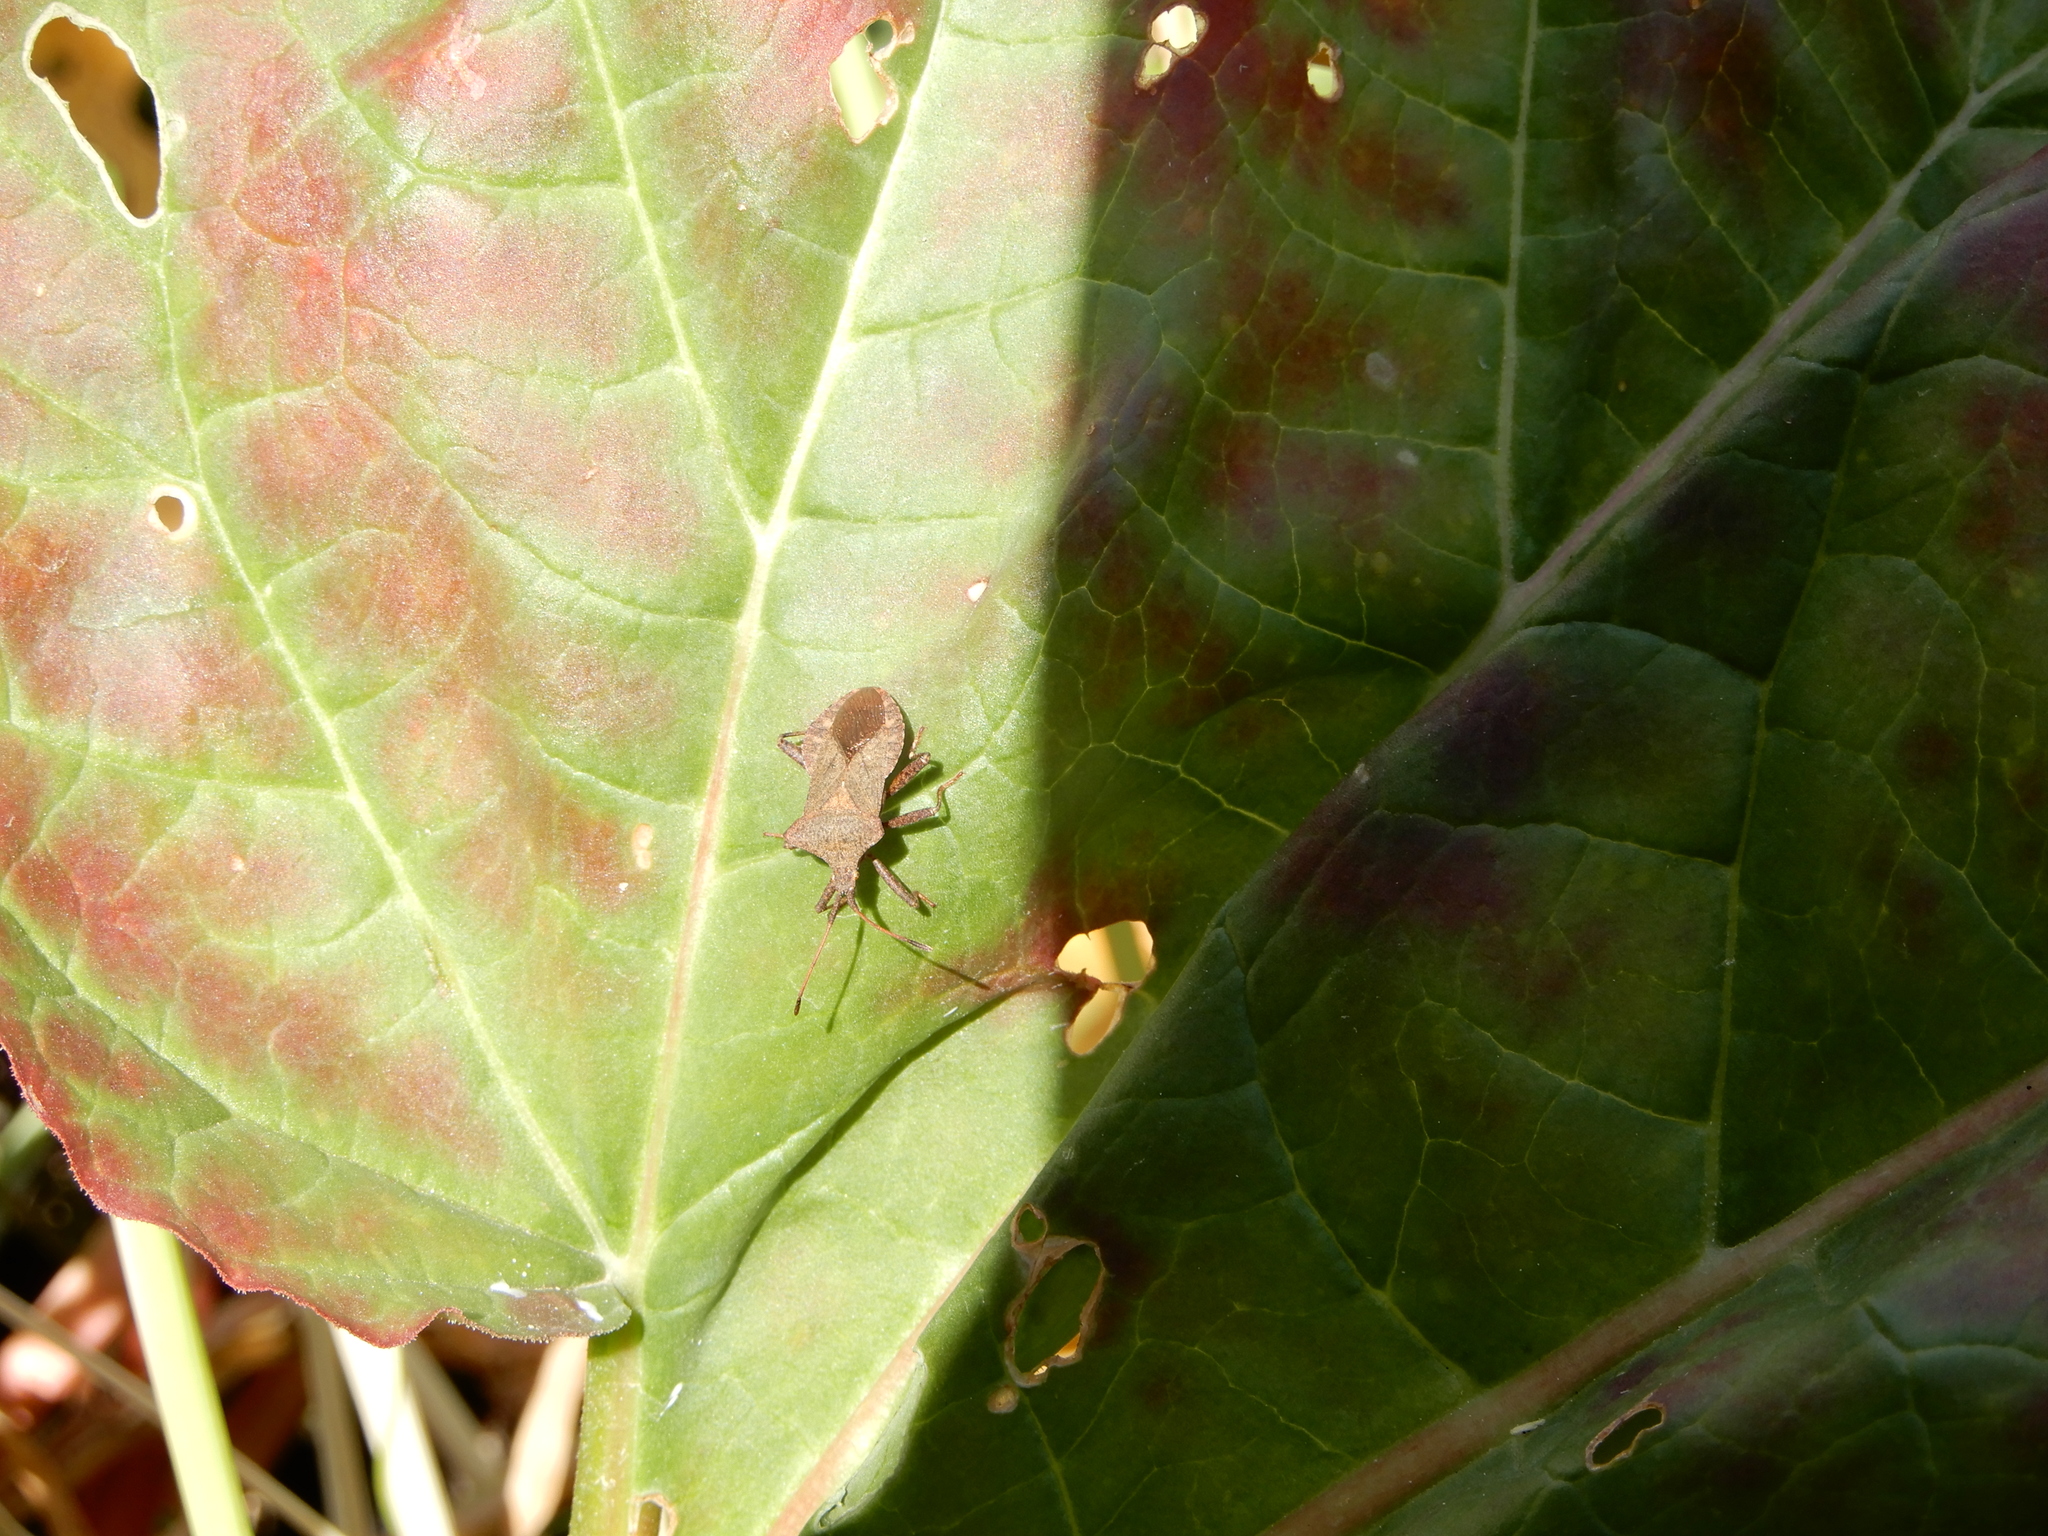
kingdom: Animalia
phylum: Arthropoda
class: Insecta
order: Hemiptera
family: Coreidae
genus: Coreus
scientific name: Coreus marginatus
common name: Dock bug
